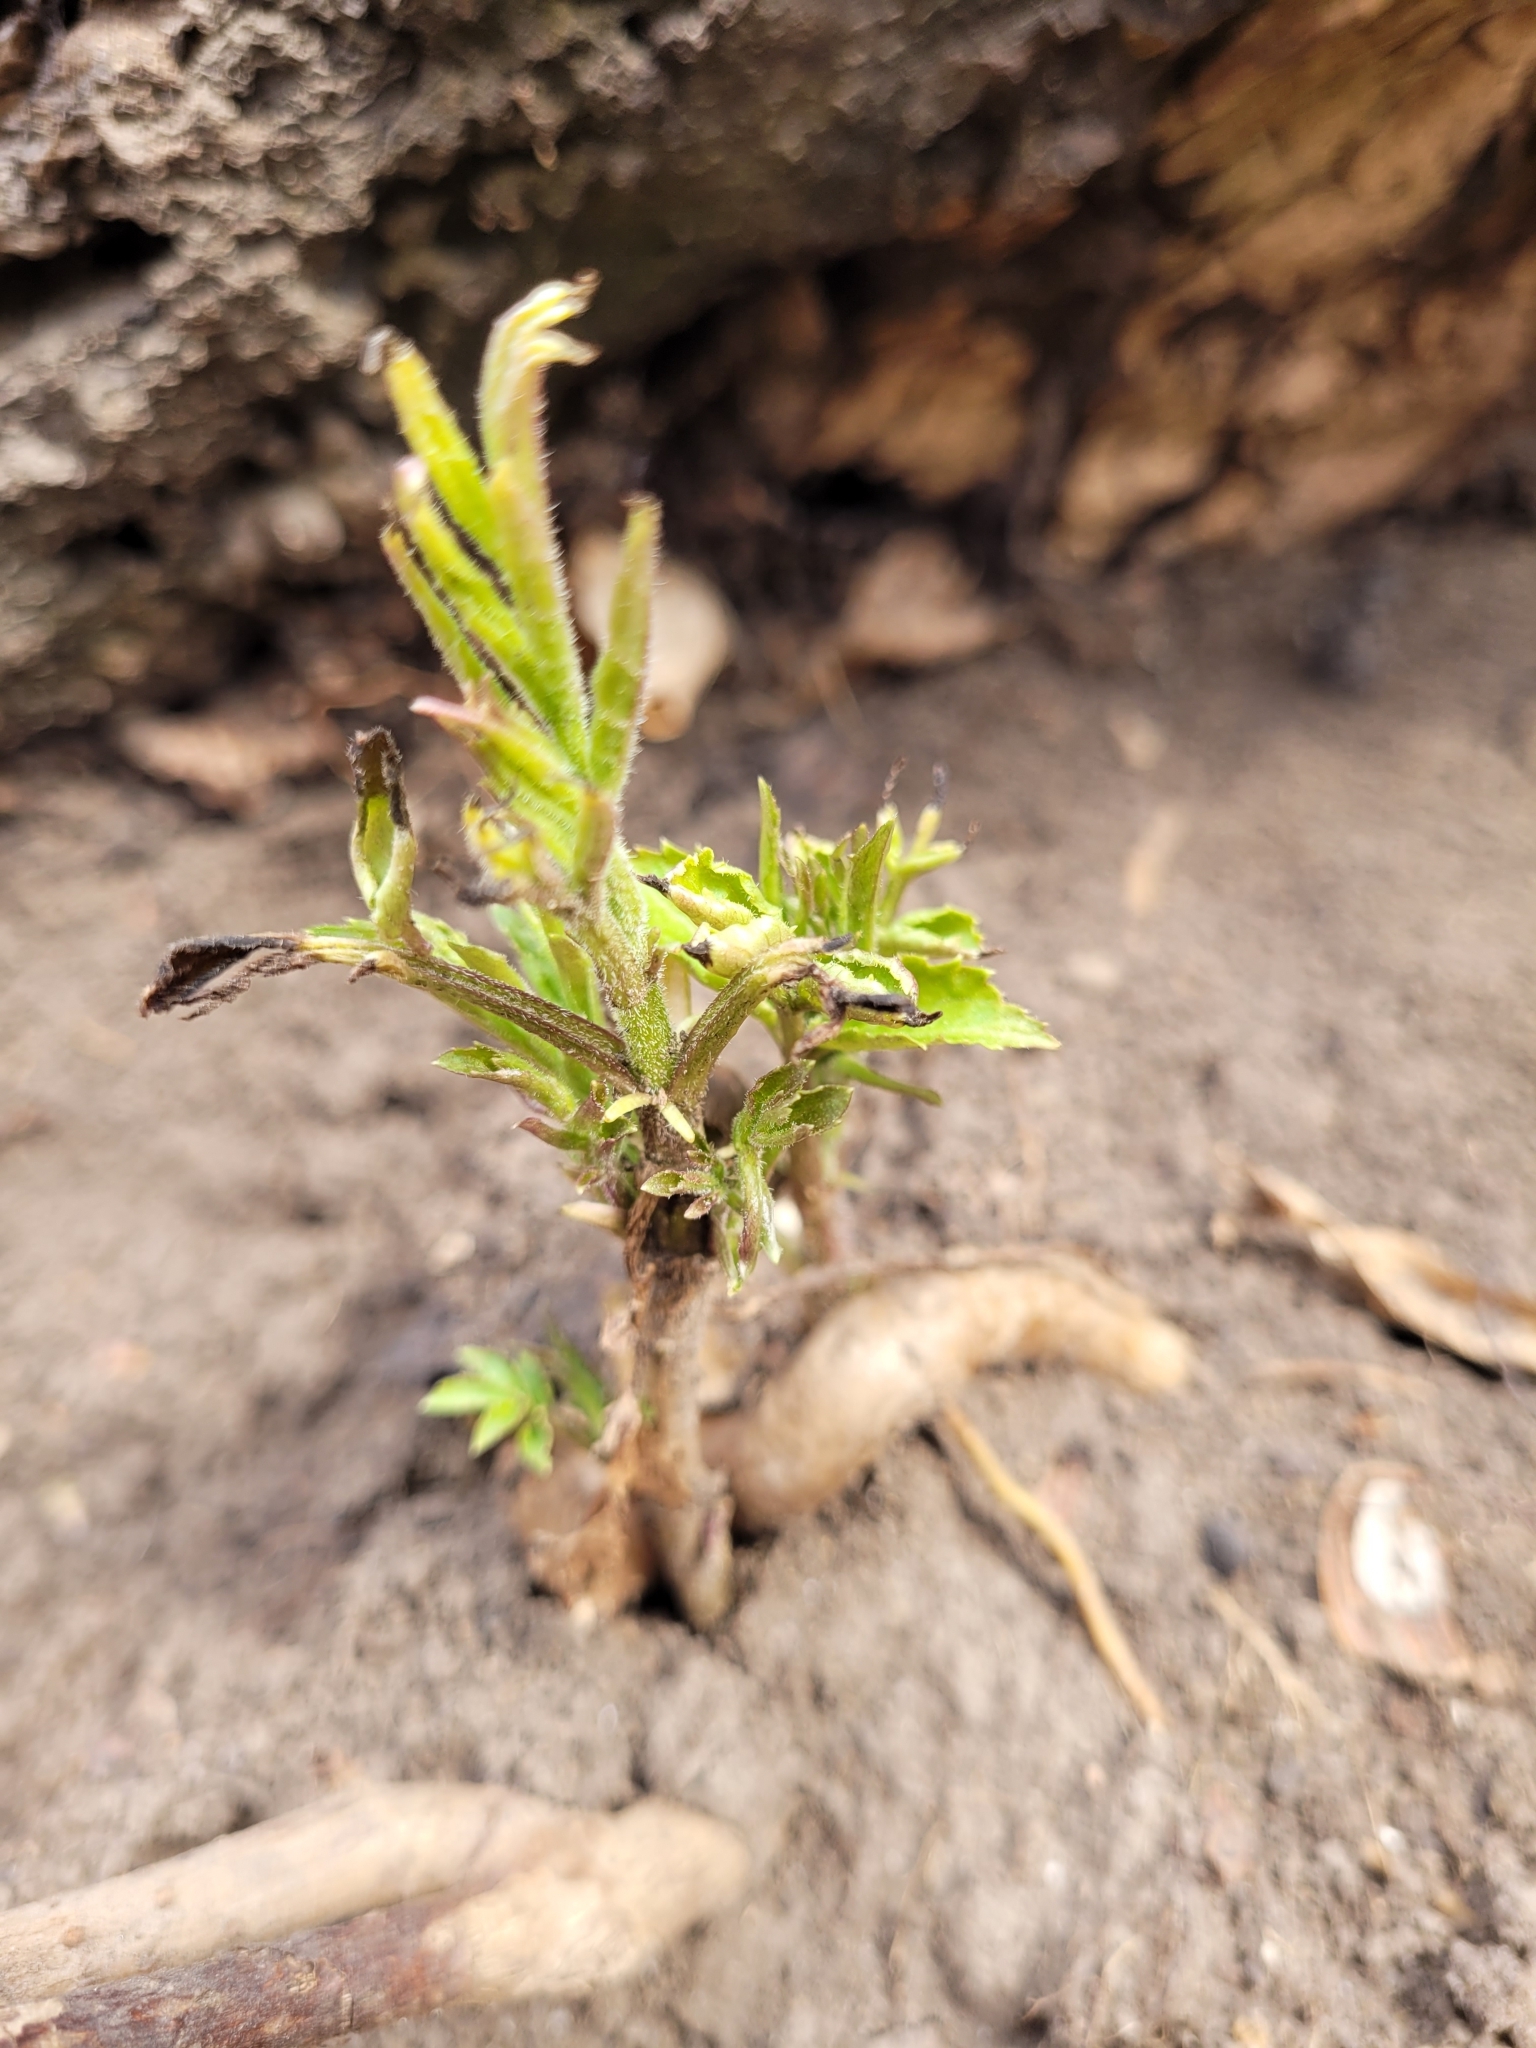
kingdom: Plantae
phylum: Tracheophyta
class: Magnoliopsida
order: Sapindales
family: Sapindaceae
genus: Acer
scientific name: Acer negundo
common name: Ashleaf maple
